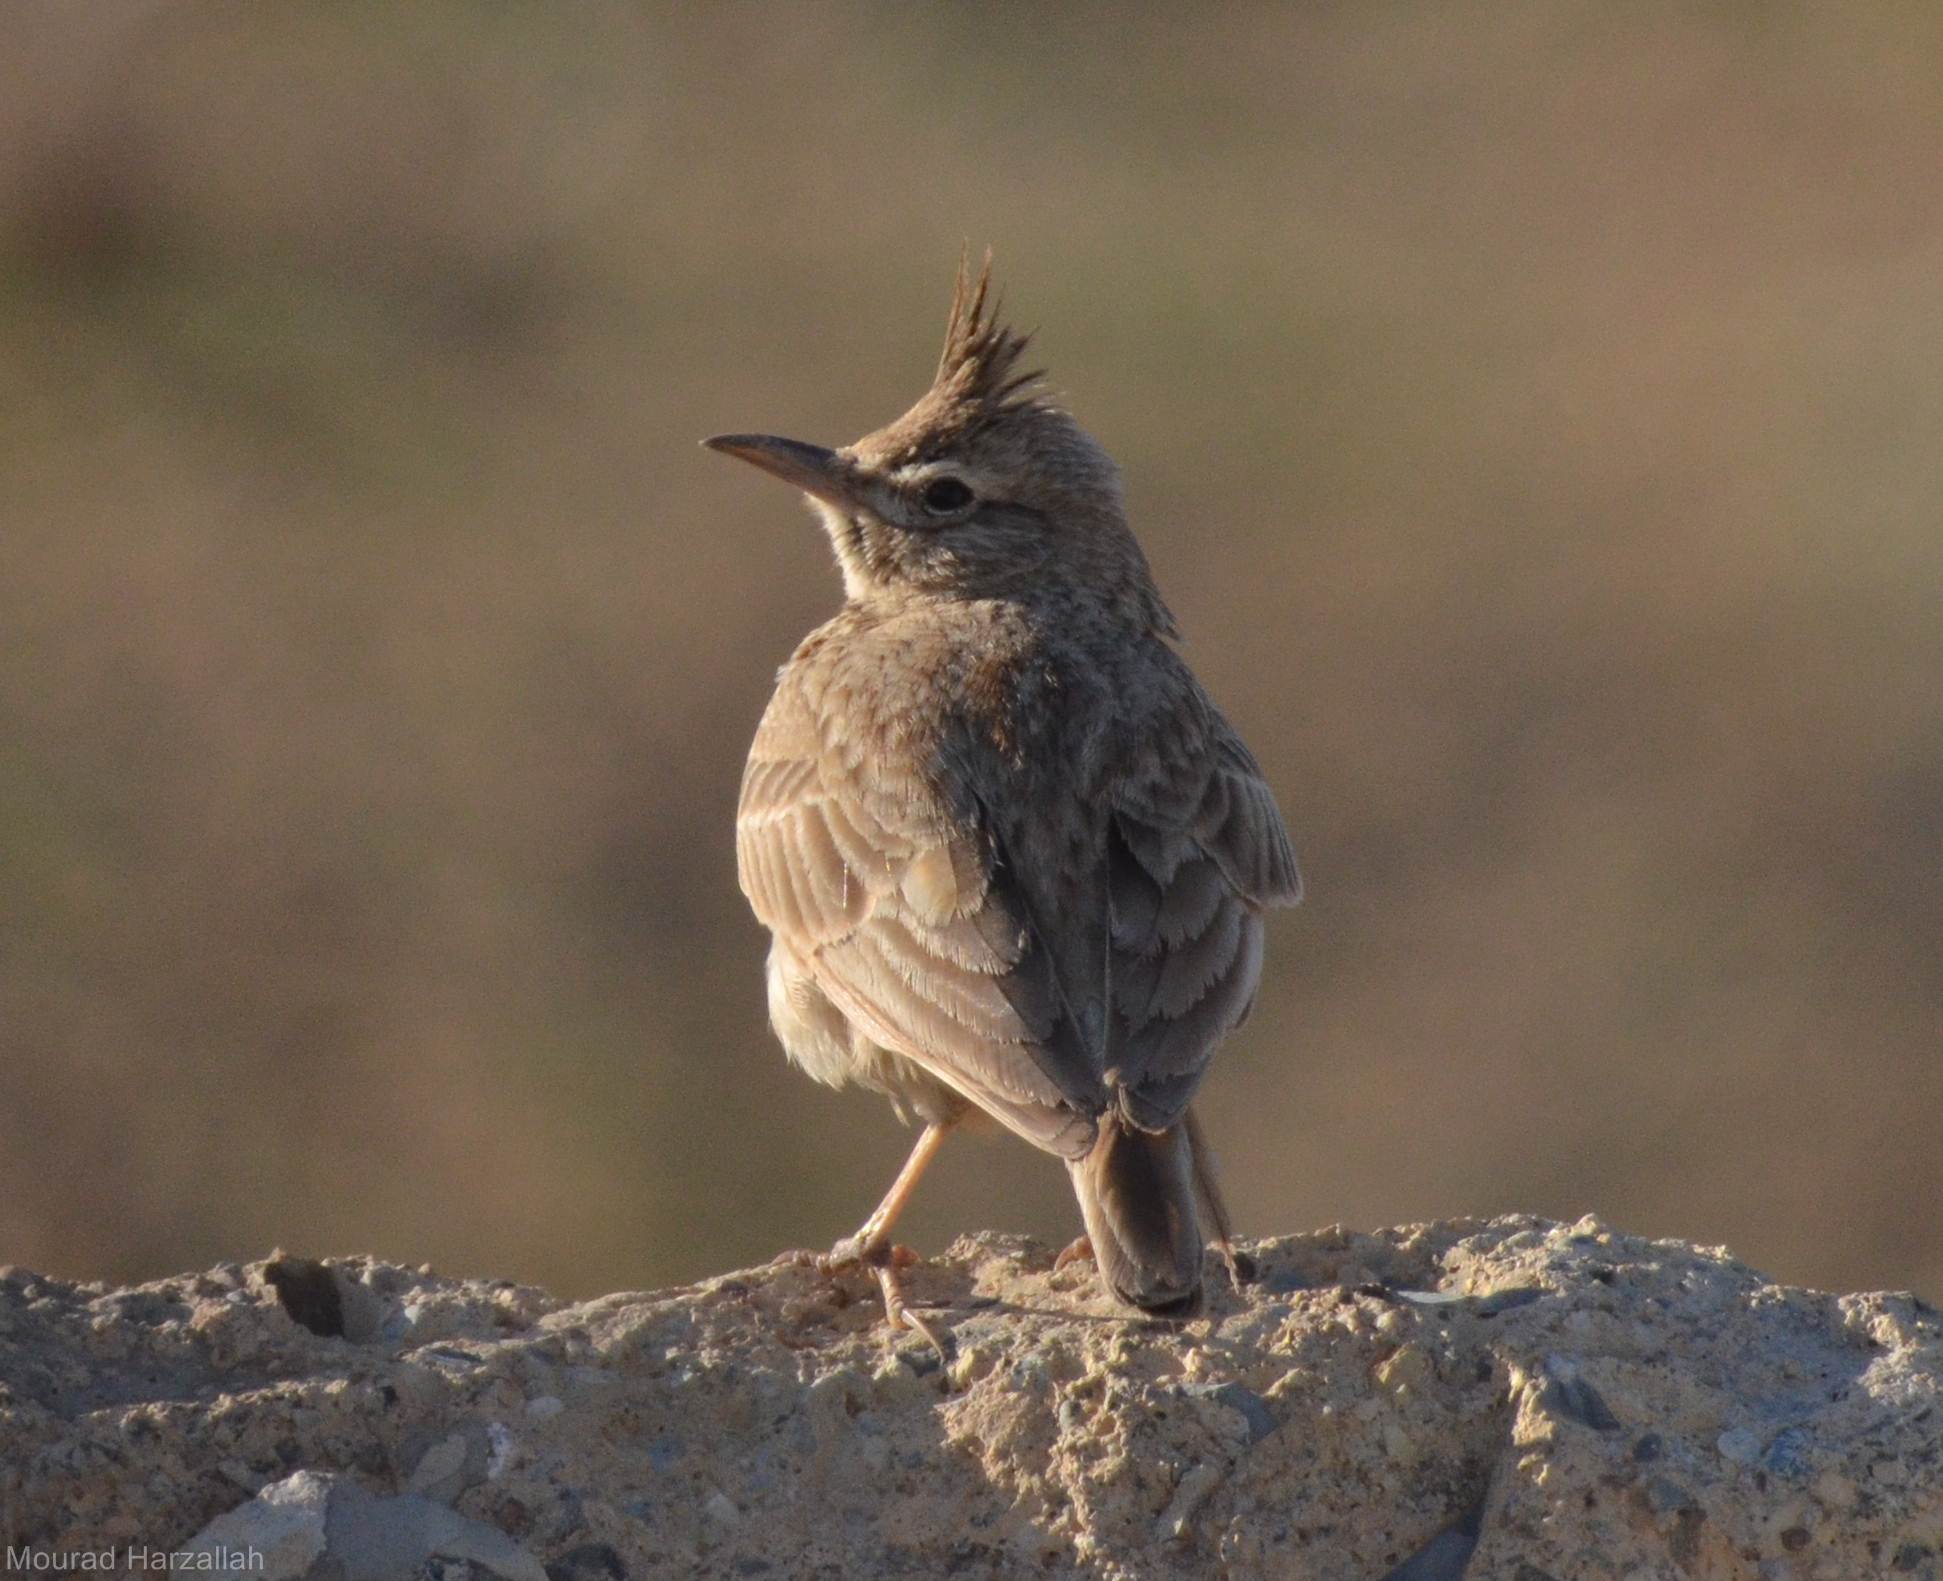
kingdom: Animalia
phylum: Chordata
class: Aves
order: Passeriformes
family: Alaudidae
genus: Galerida
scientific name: Galerida cristata
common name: Crested lark
